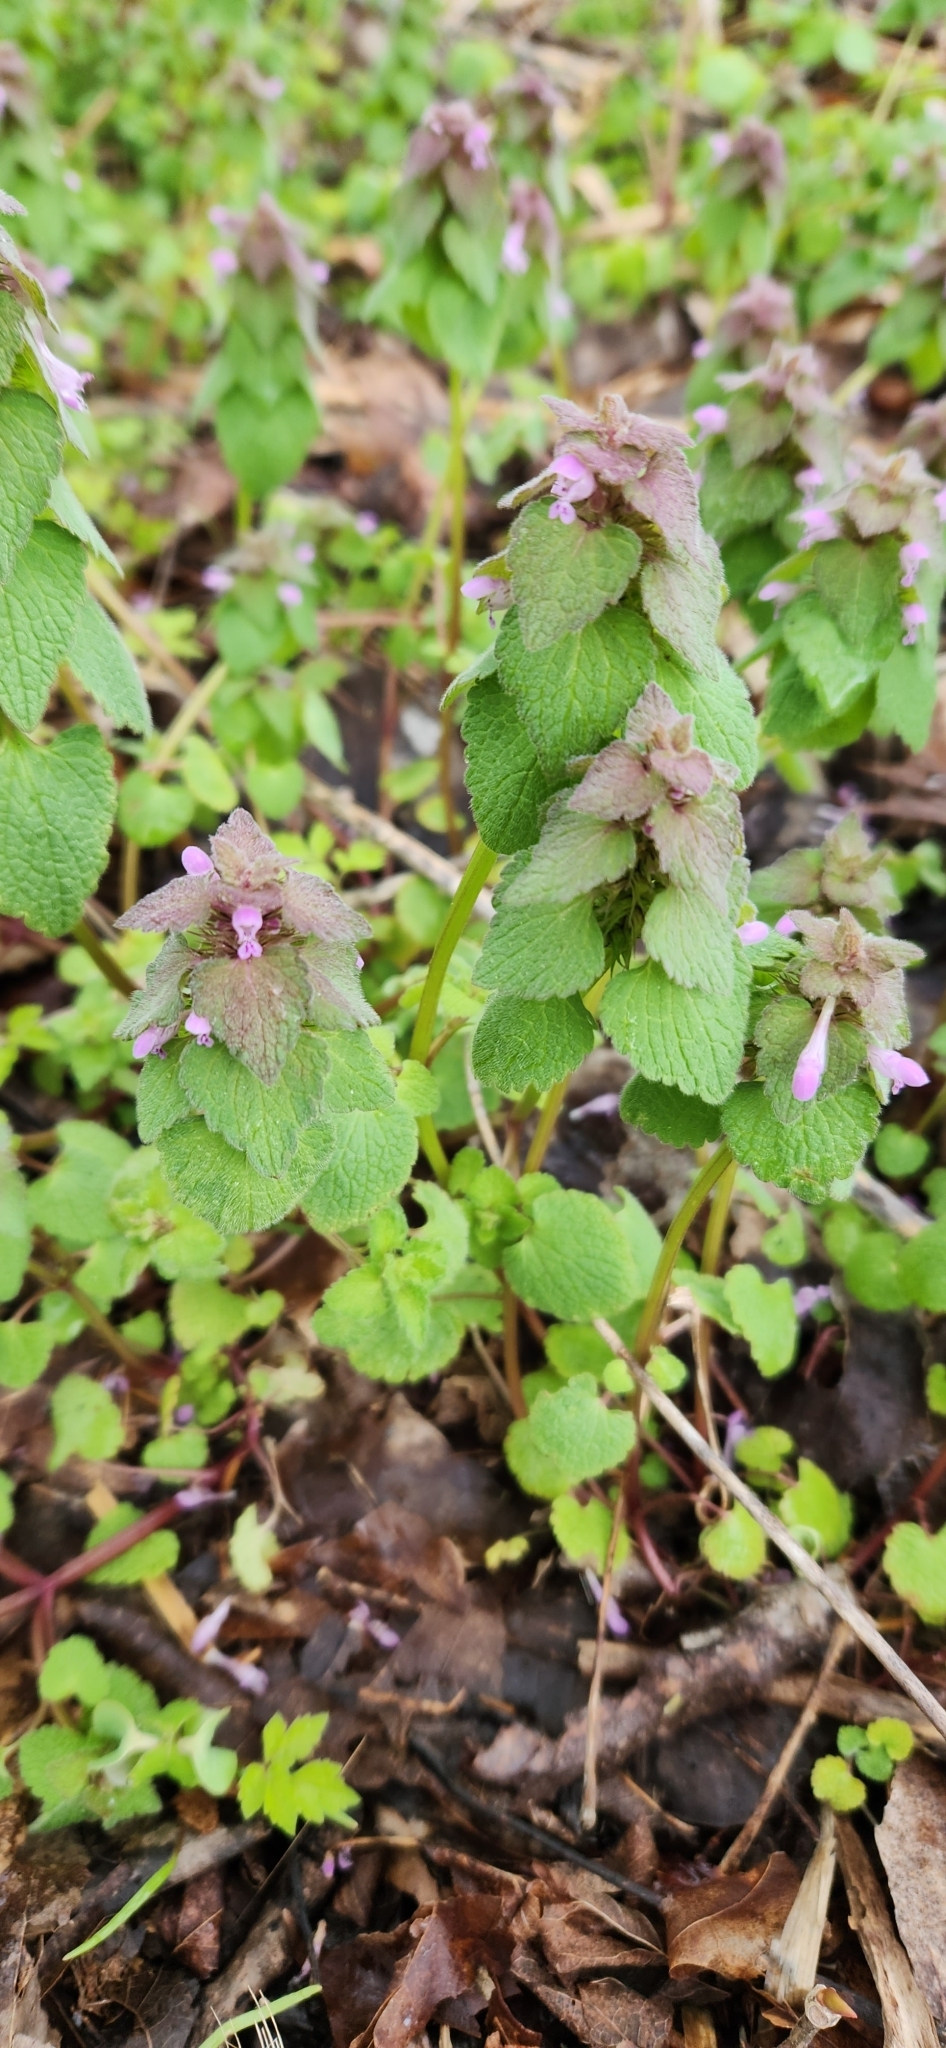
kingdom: Plantae
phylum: Tracheophyta
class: Magnoliopsida
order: Lamiales
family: Lamiaceae
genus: Lamium
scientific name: Lamium purpureum
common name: Red dead-nettle
